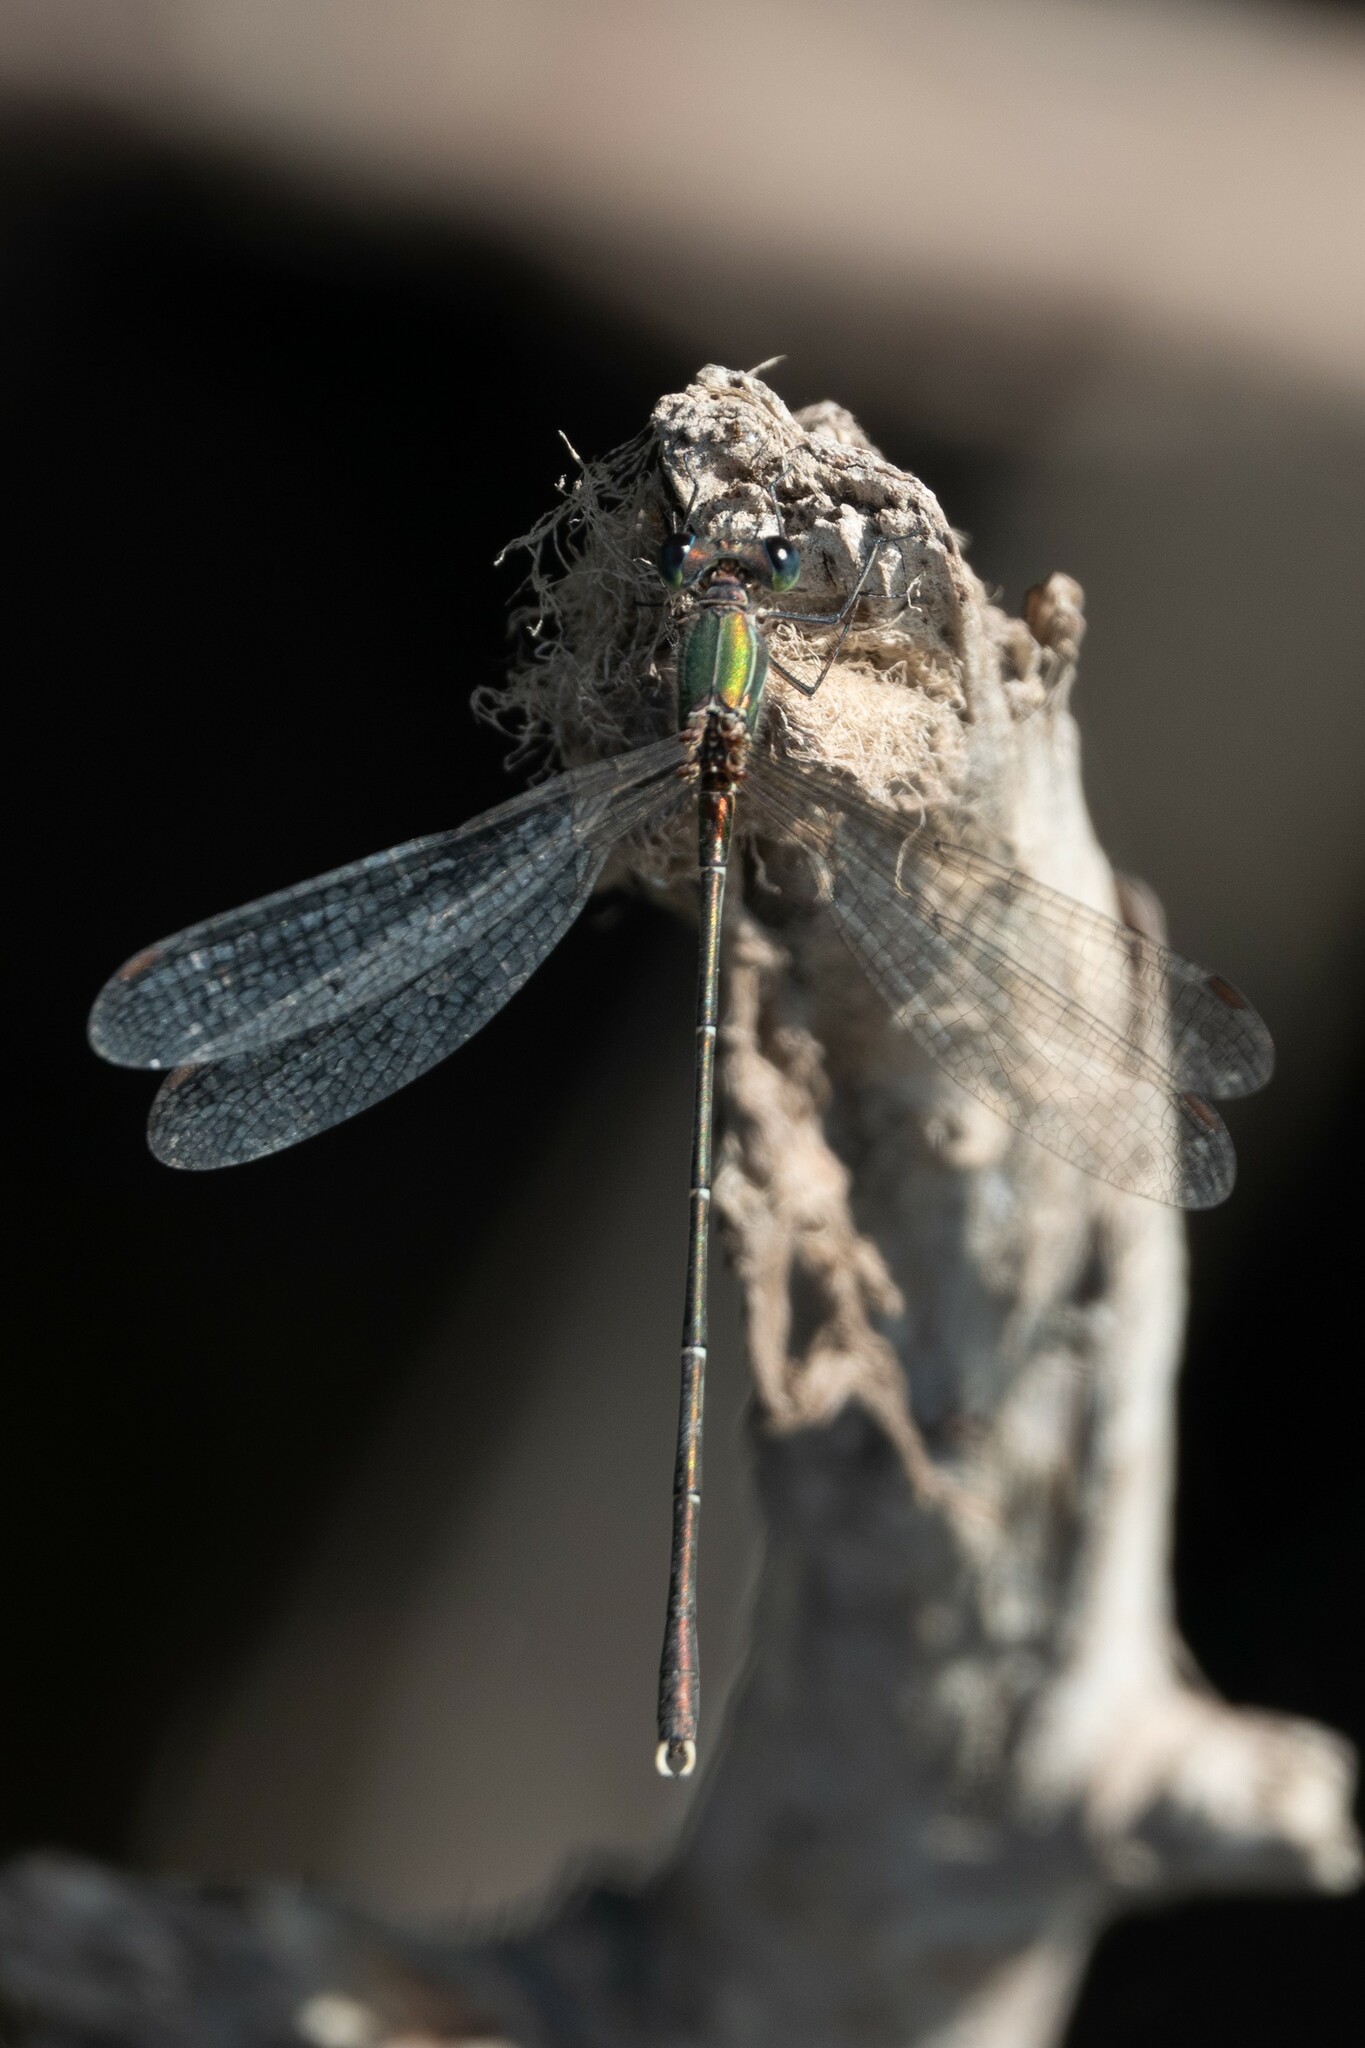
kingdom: Animalia
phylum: Arthropoda
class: Insecta
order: Odonata
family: Lestidae
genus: Chalcolestes
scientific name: Chalcolestes parvidens
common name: Eastern willow spreadwing
